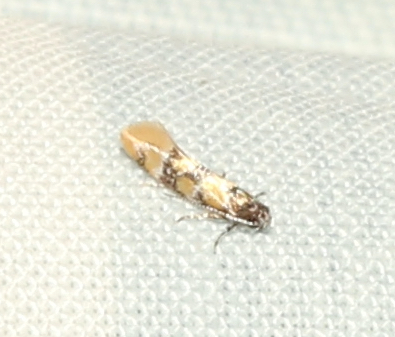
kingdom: Animalia
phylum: Arthropoda
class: Insecta
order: Lepidoptera
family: Oecophoridae
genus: Decantha
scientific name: Decantha stecia
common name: Small decantha moth
